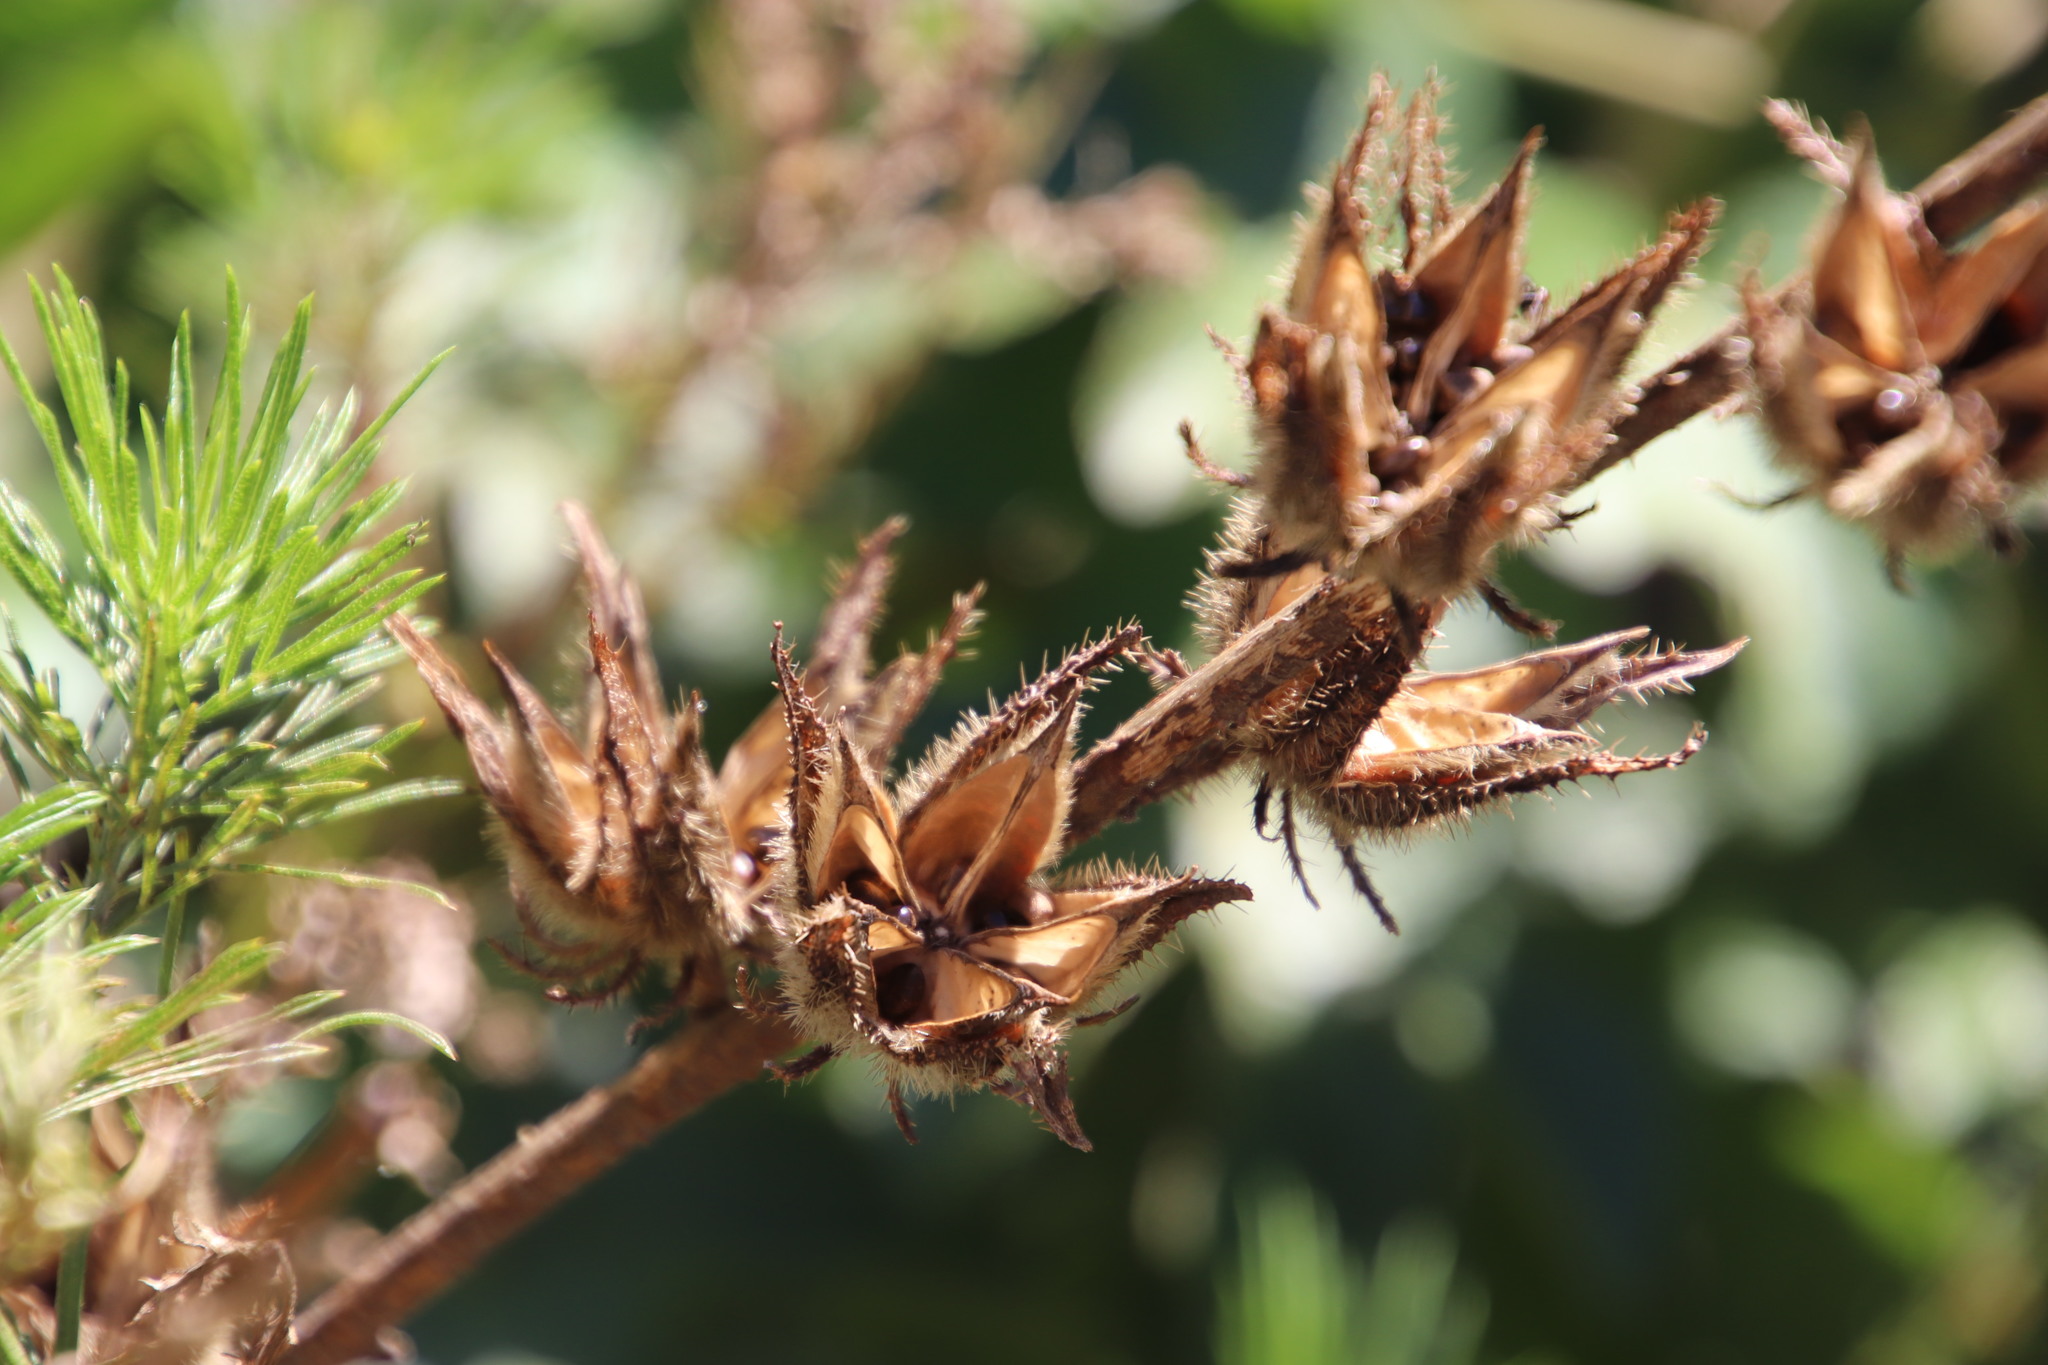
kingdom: Plantae
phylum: Tracheophyta
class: Magnoliopsida
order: Malvales
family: Malvaceae
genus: Hibiscus
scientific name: Hibiscus diversifolius
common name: Cape hibiscus
